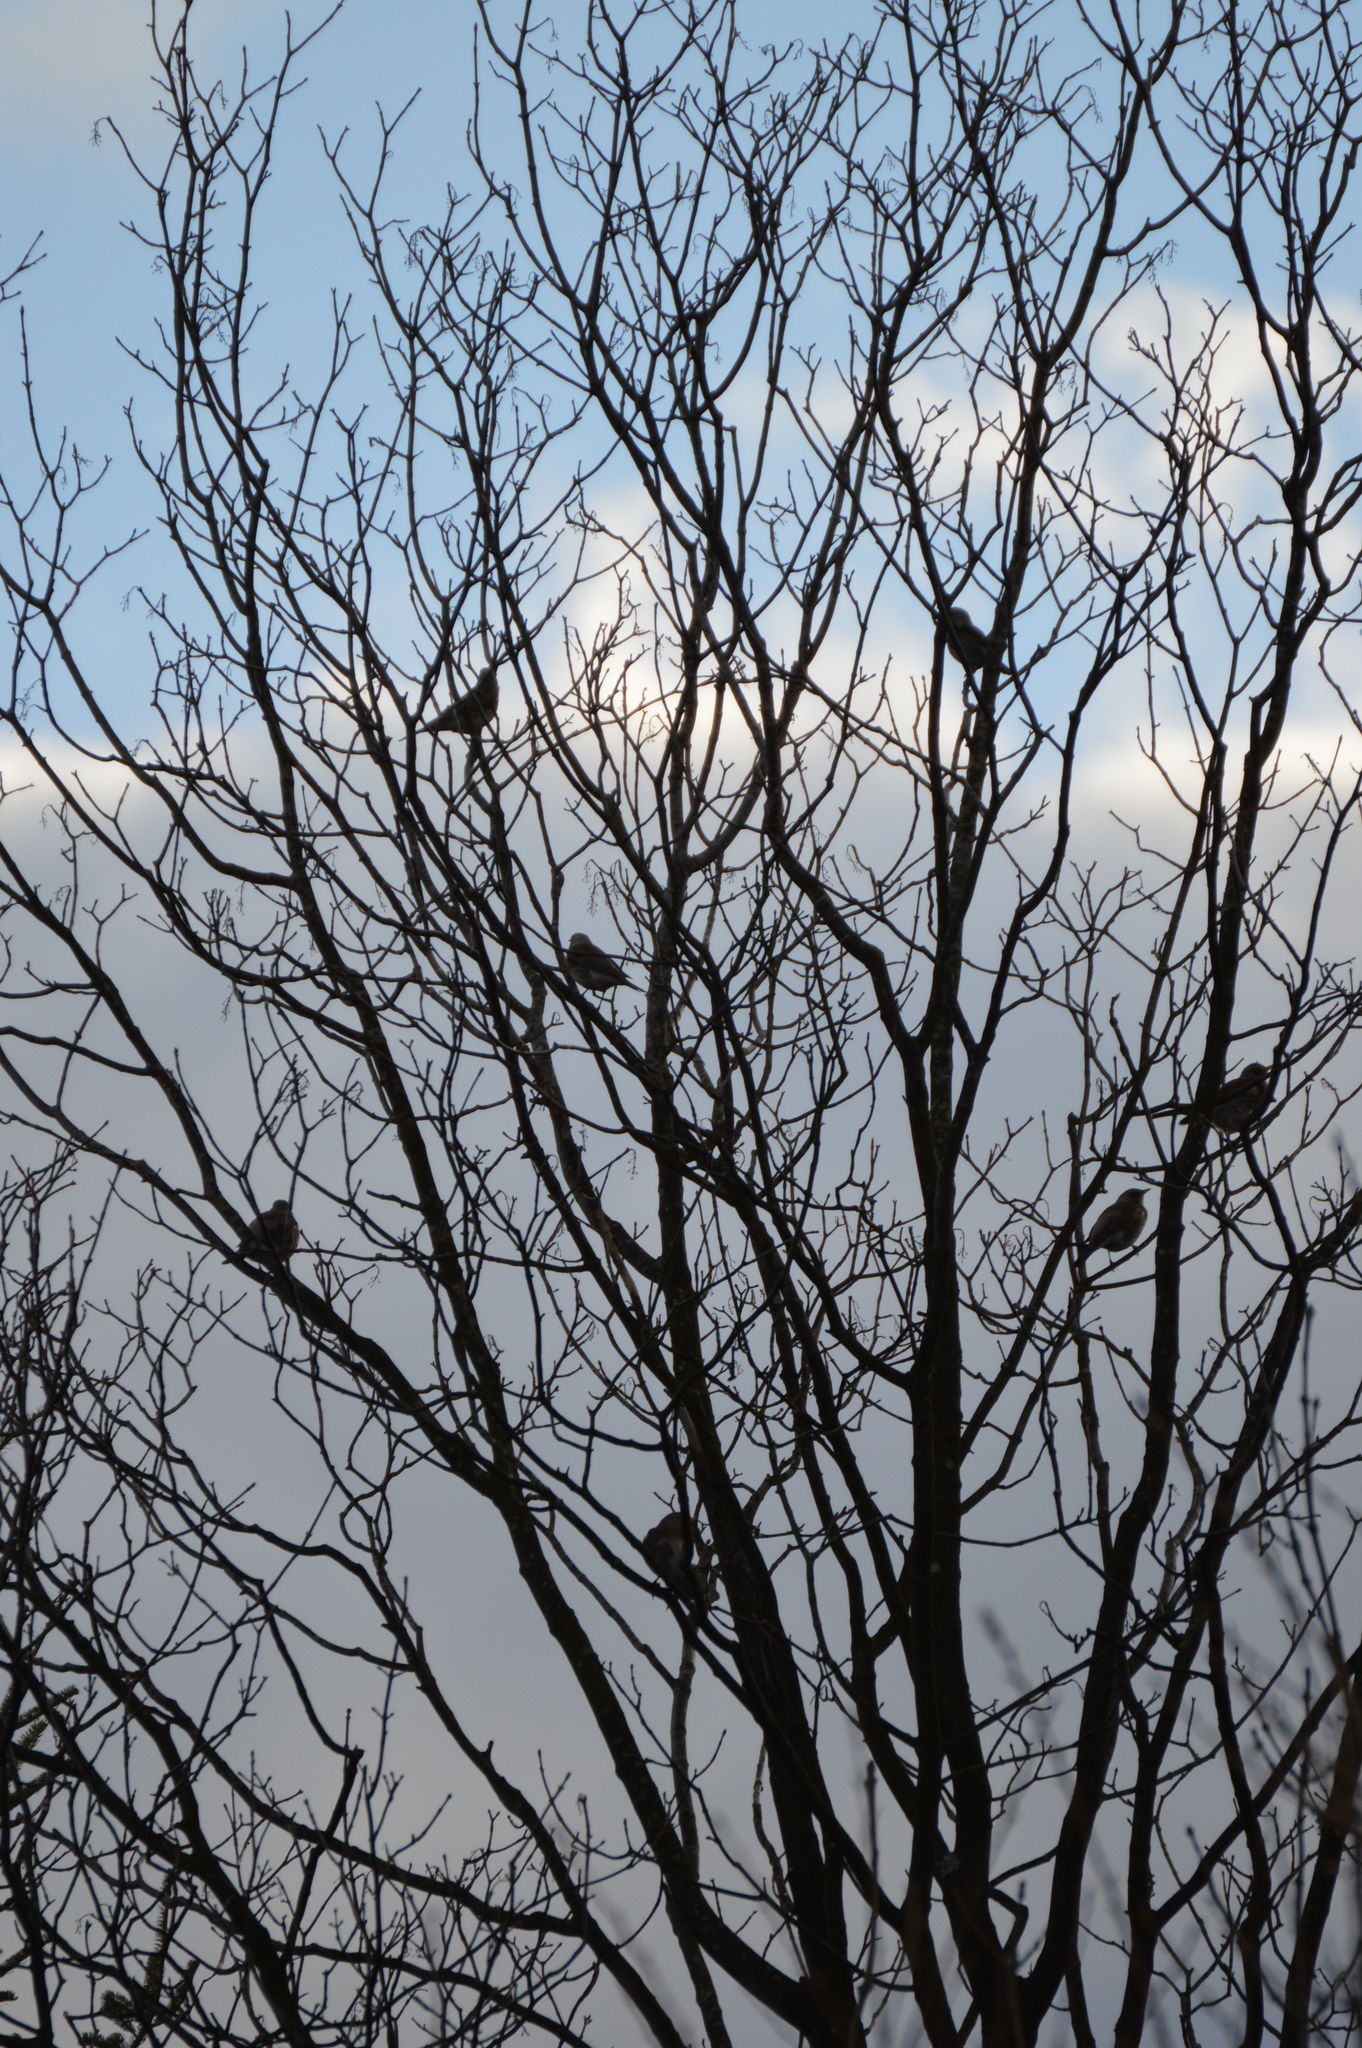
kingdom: Animalia
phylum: Chordata
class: Aves
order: Passeriformes
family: Turdidae
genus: Turdus
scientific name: Turdus pilaris
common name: Fieldfare
